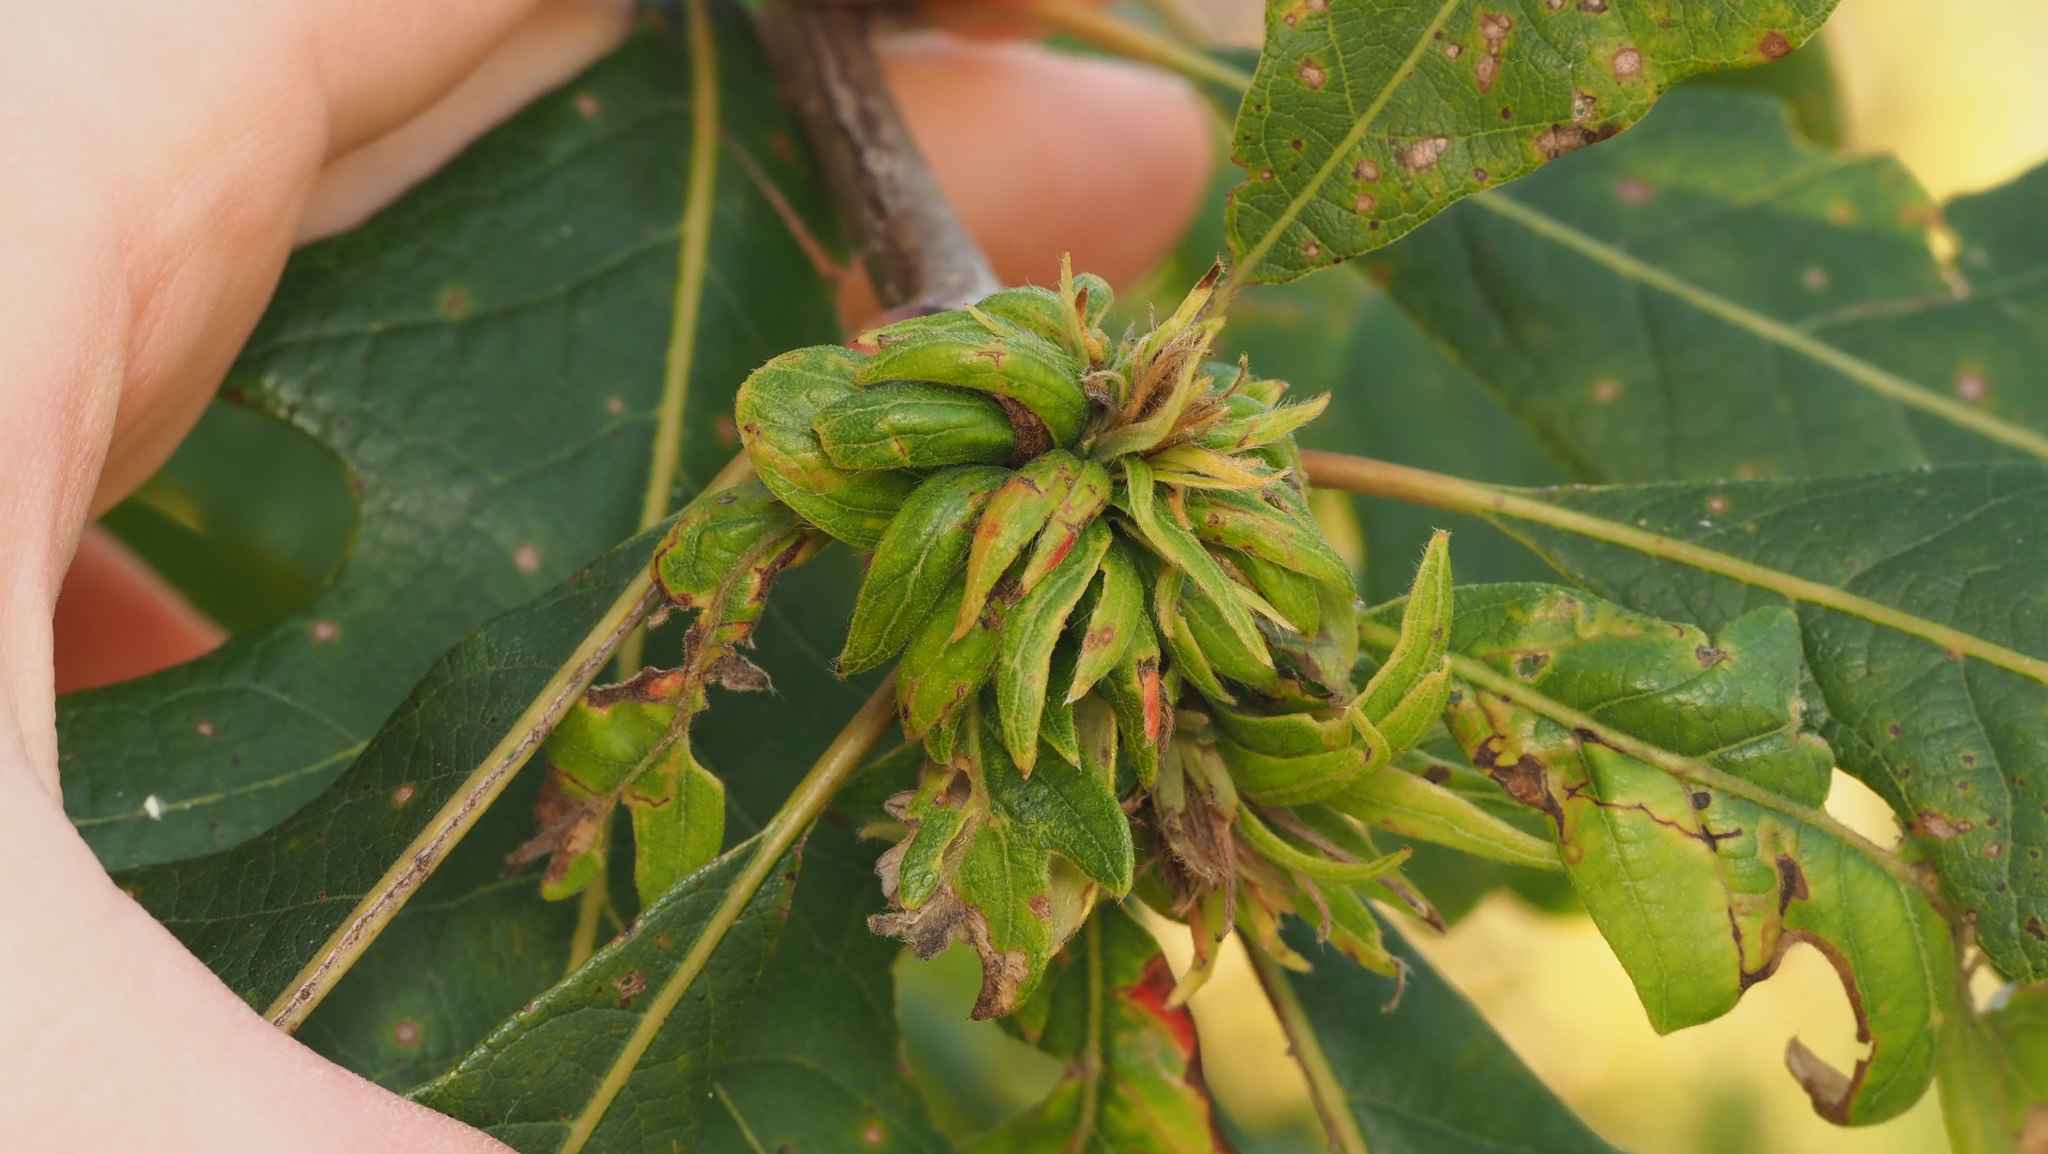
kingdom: Animalia
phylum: Arthropoda
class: Insecta
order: Hymenoptera
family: Cynipidae
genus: Andricus
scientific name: Andricus
